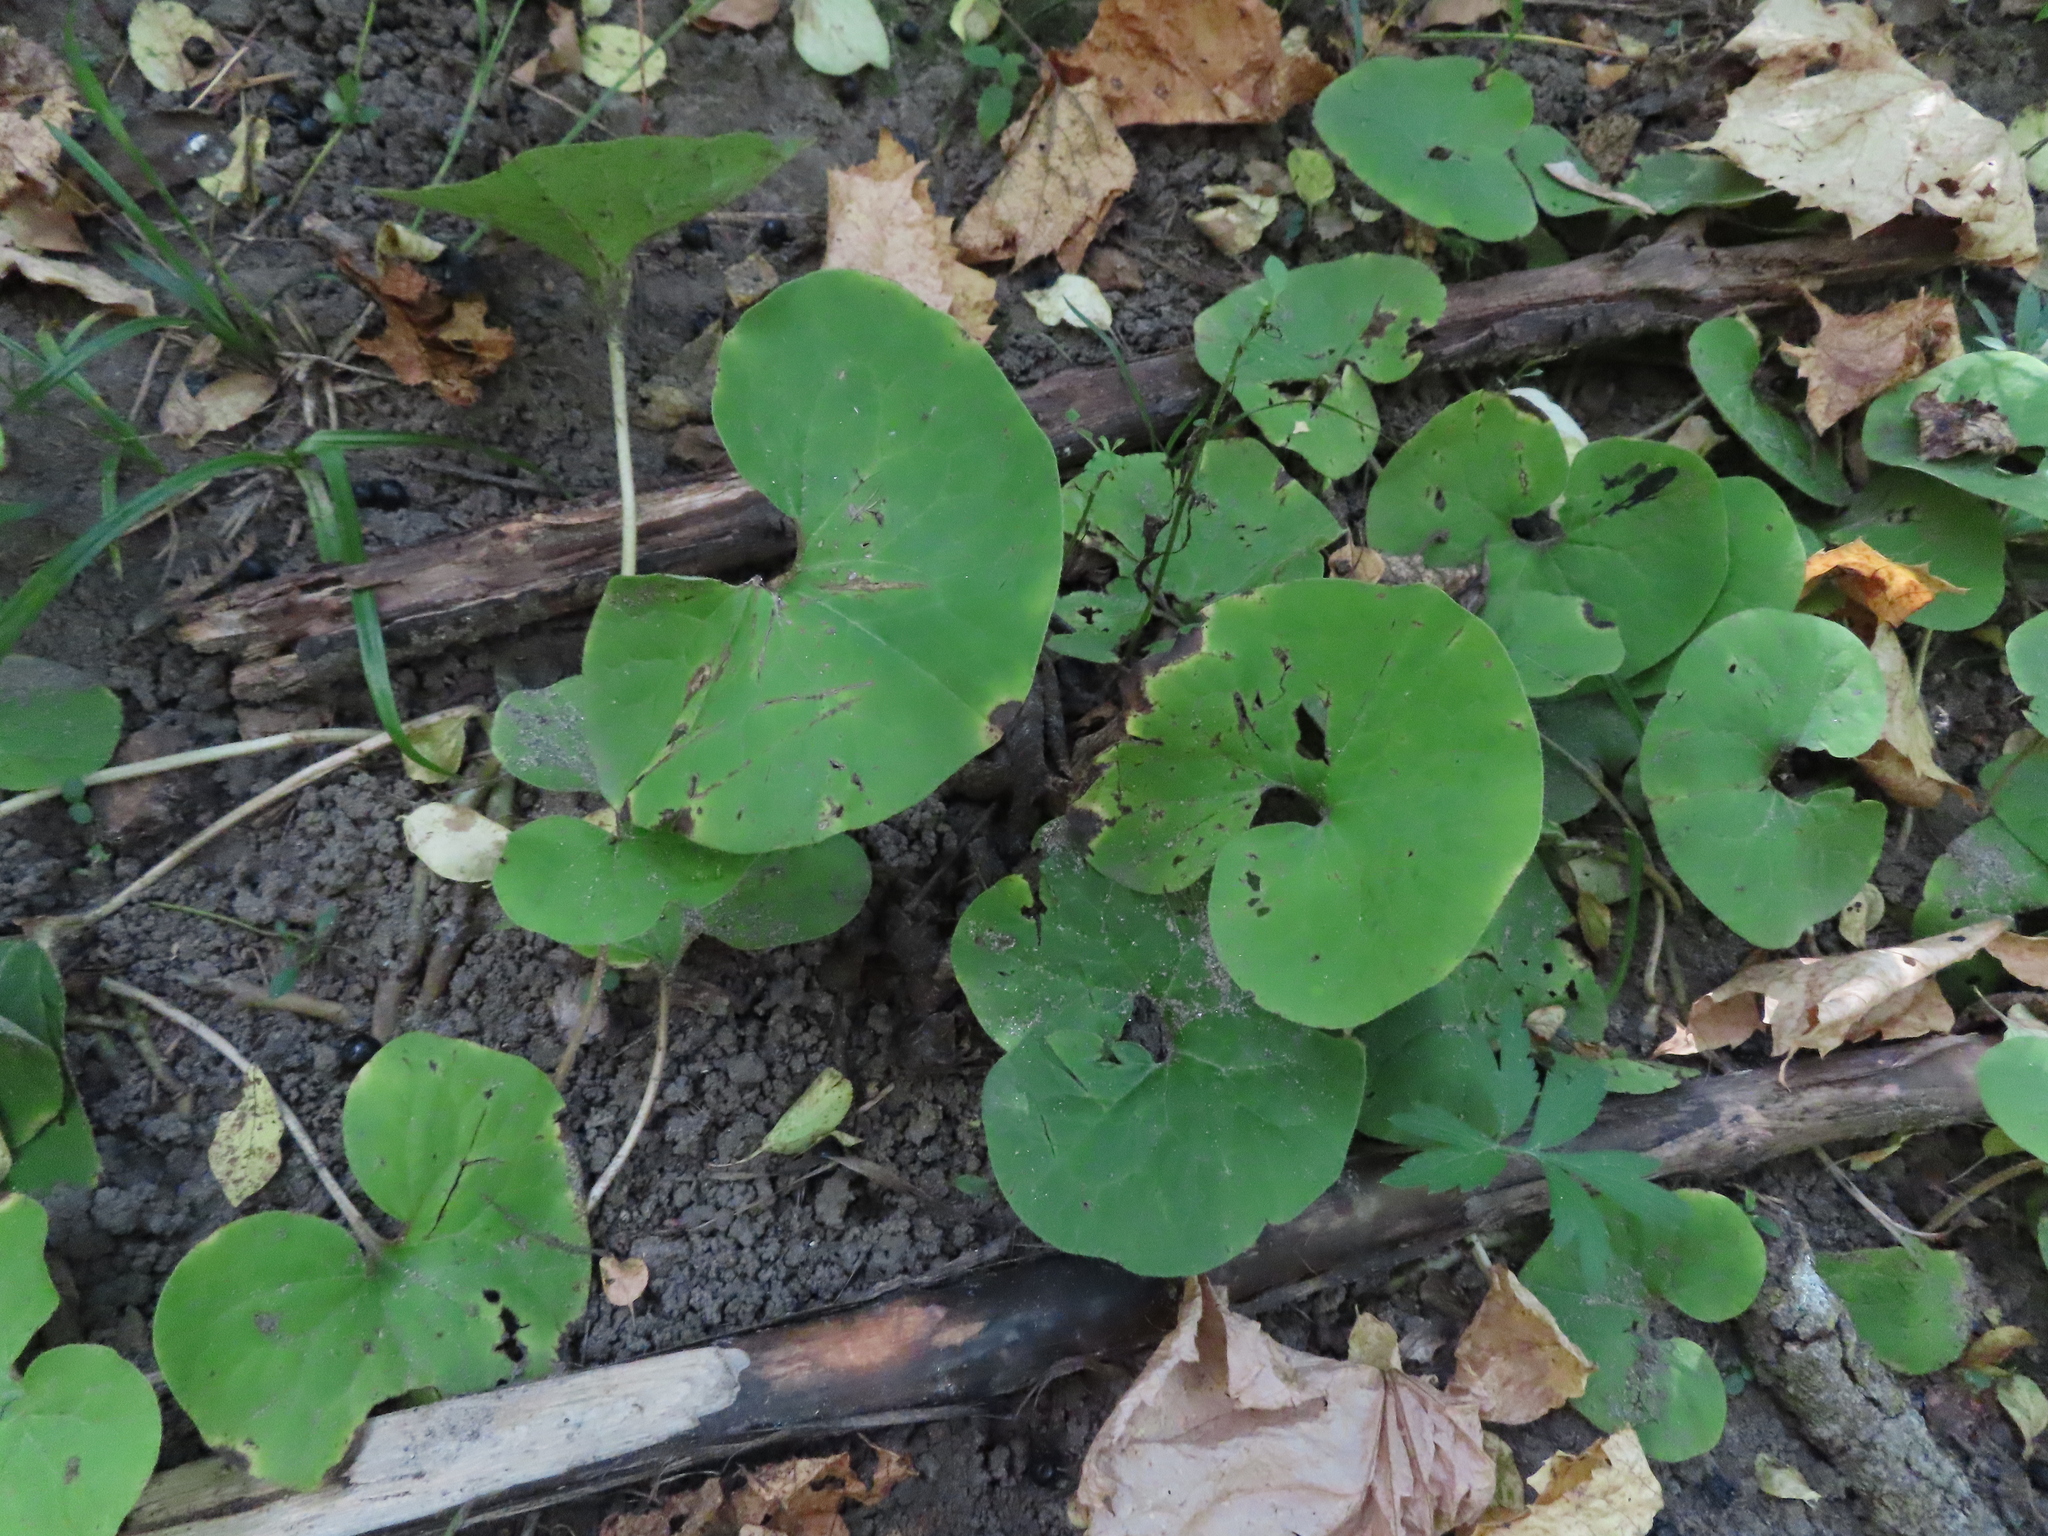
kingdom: Plantae
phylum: Tracheophyta
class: Magnoliopsida
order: Piperales
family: Aristolochiaceae
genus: Asarum
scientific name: Asarum canadense
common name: Wild ginger
